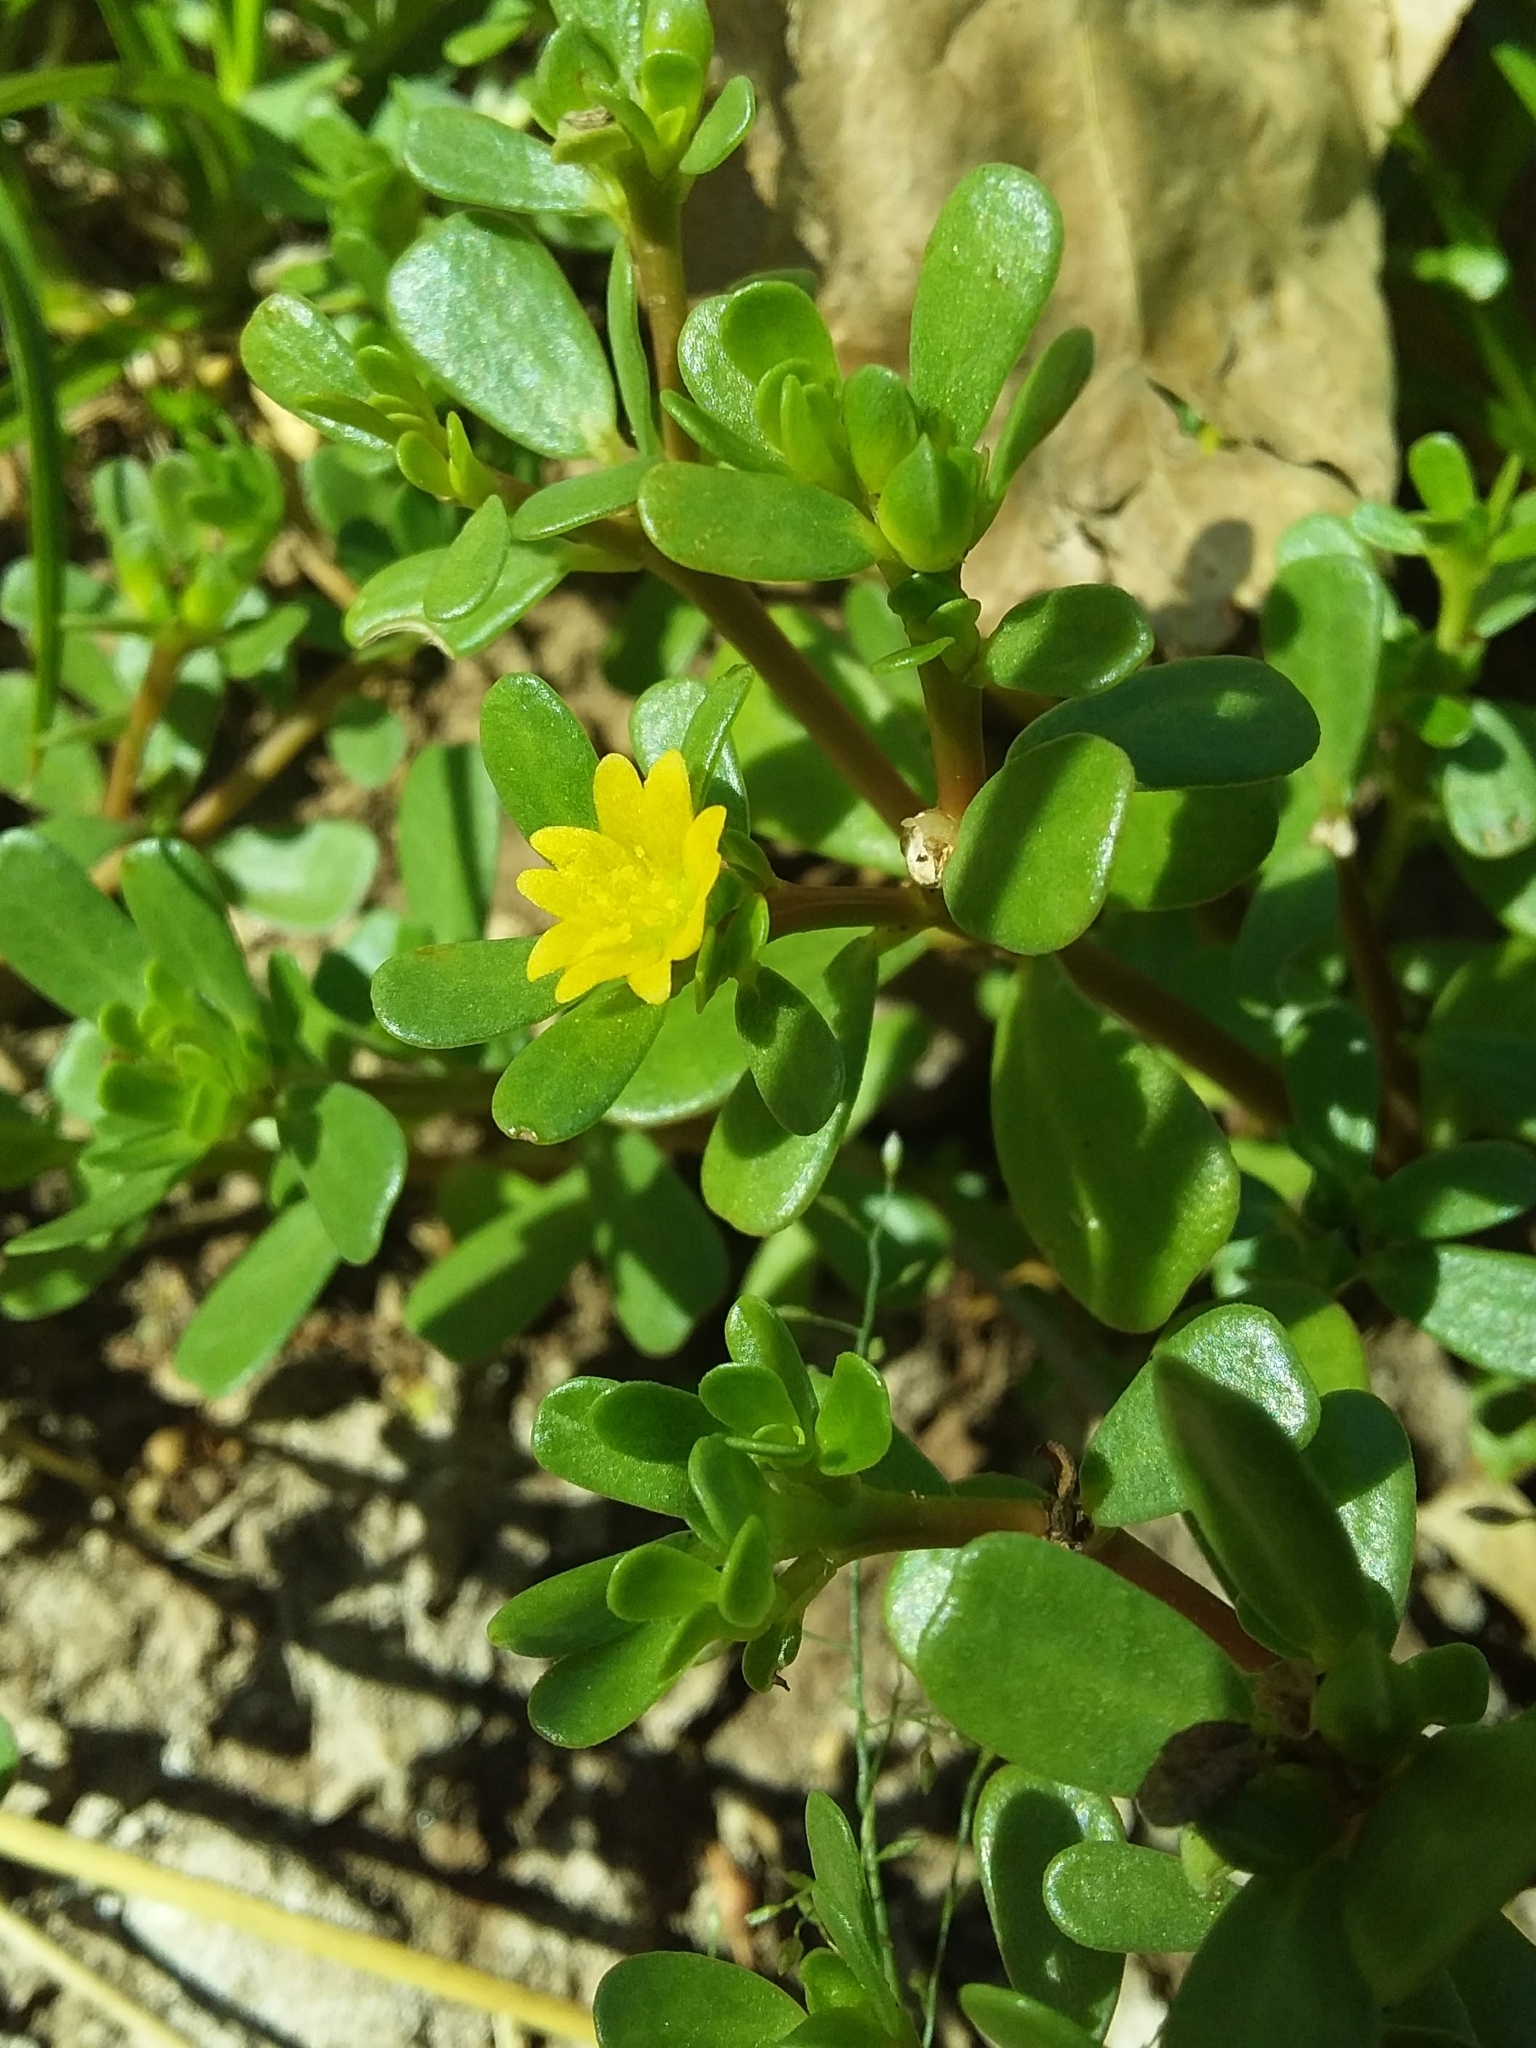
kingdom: Plantae
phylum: Tracheophyta
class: Magnoliopsida
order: Caryophyllales
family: Portulacaceae
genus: Portulaca
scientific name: Portulaca oleracea
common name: Common purslane
